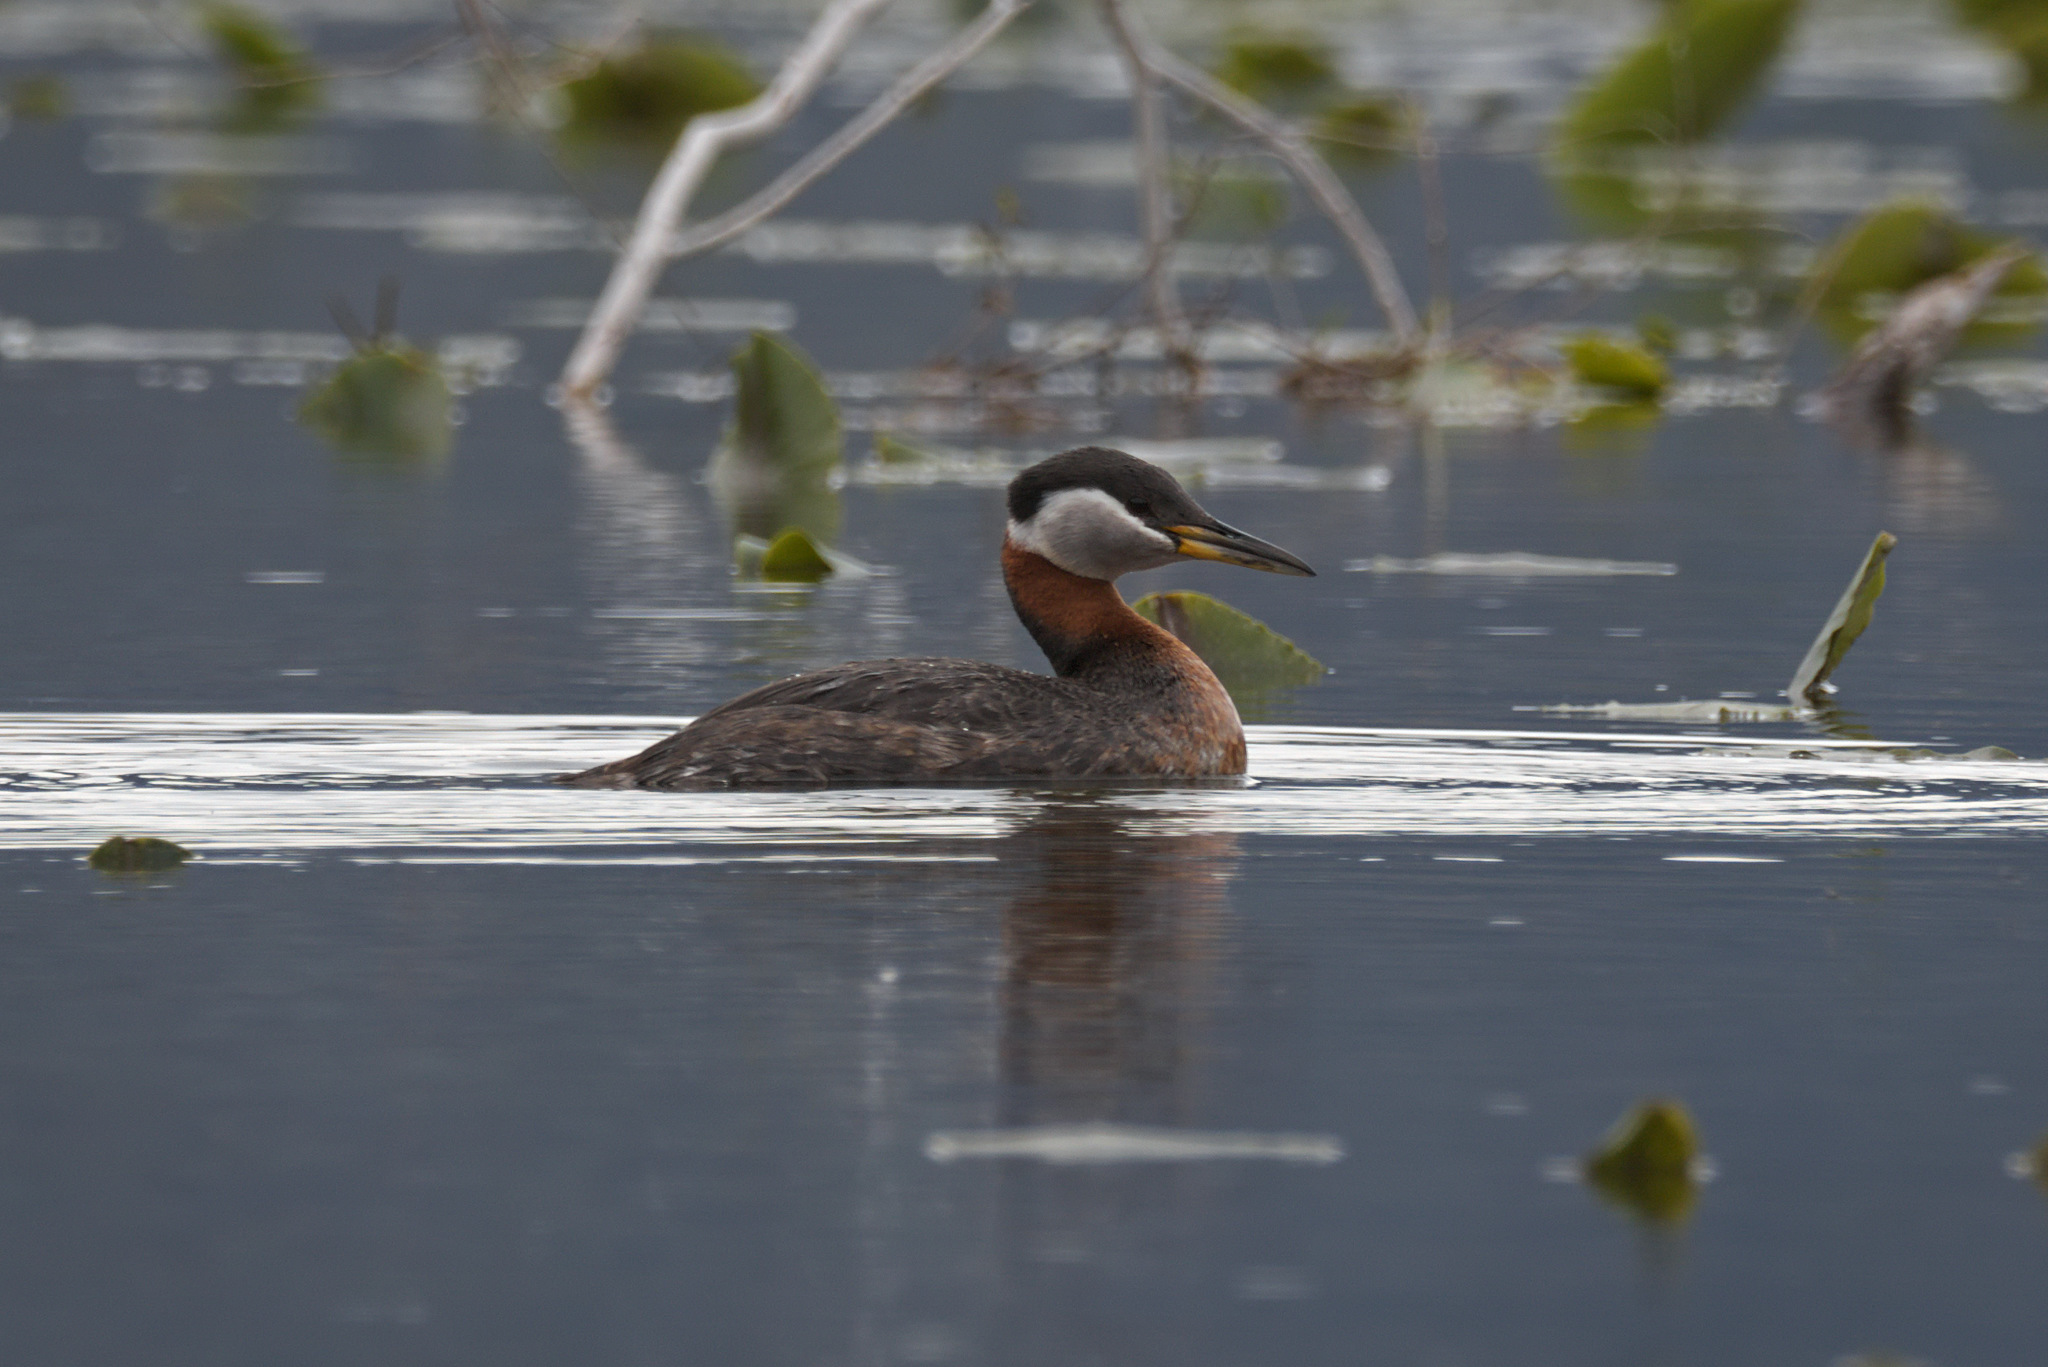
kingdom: Animalia
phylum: Chordata
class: Aves
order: Podicipediformes
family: Podicipedidae
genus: Podiceps
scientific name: Podiceps grisegena
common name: Red-necked grebe
